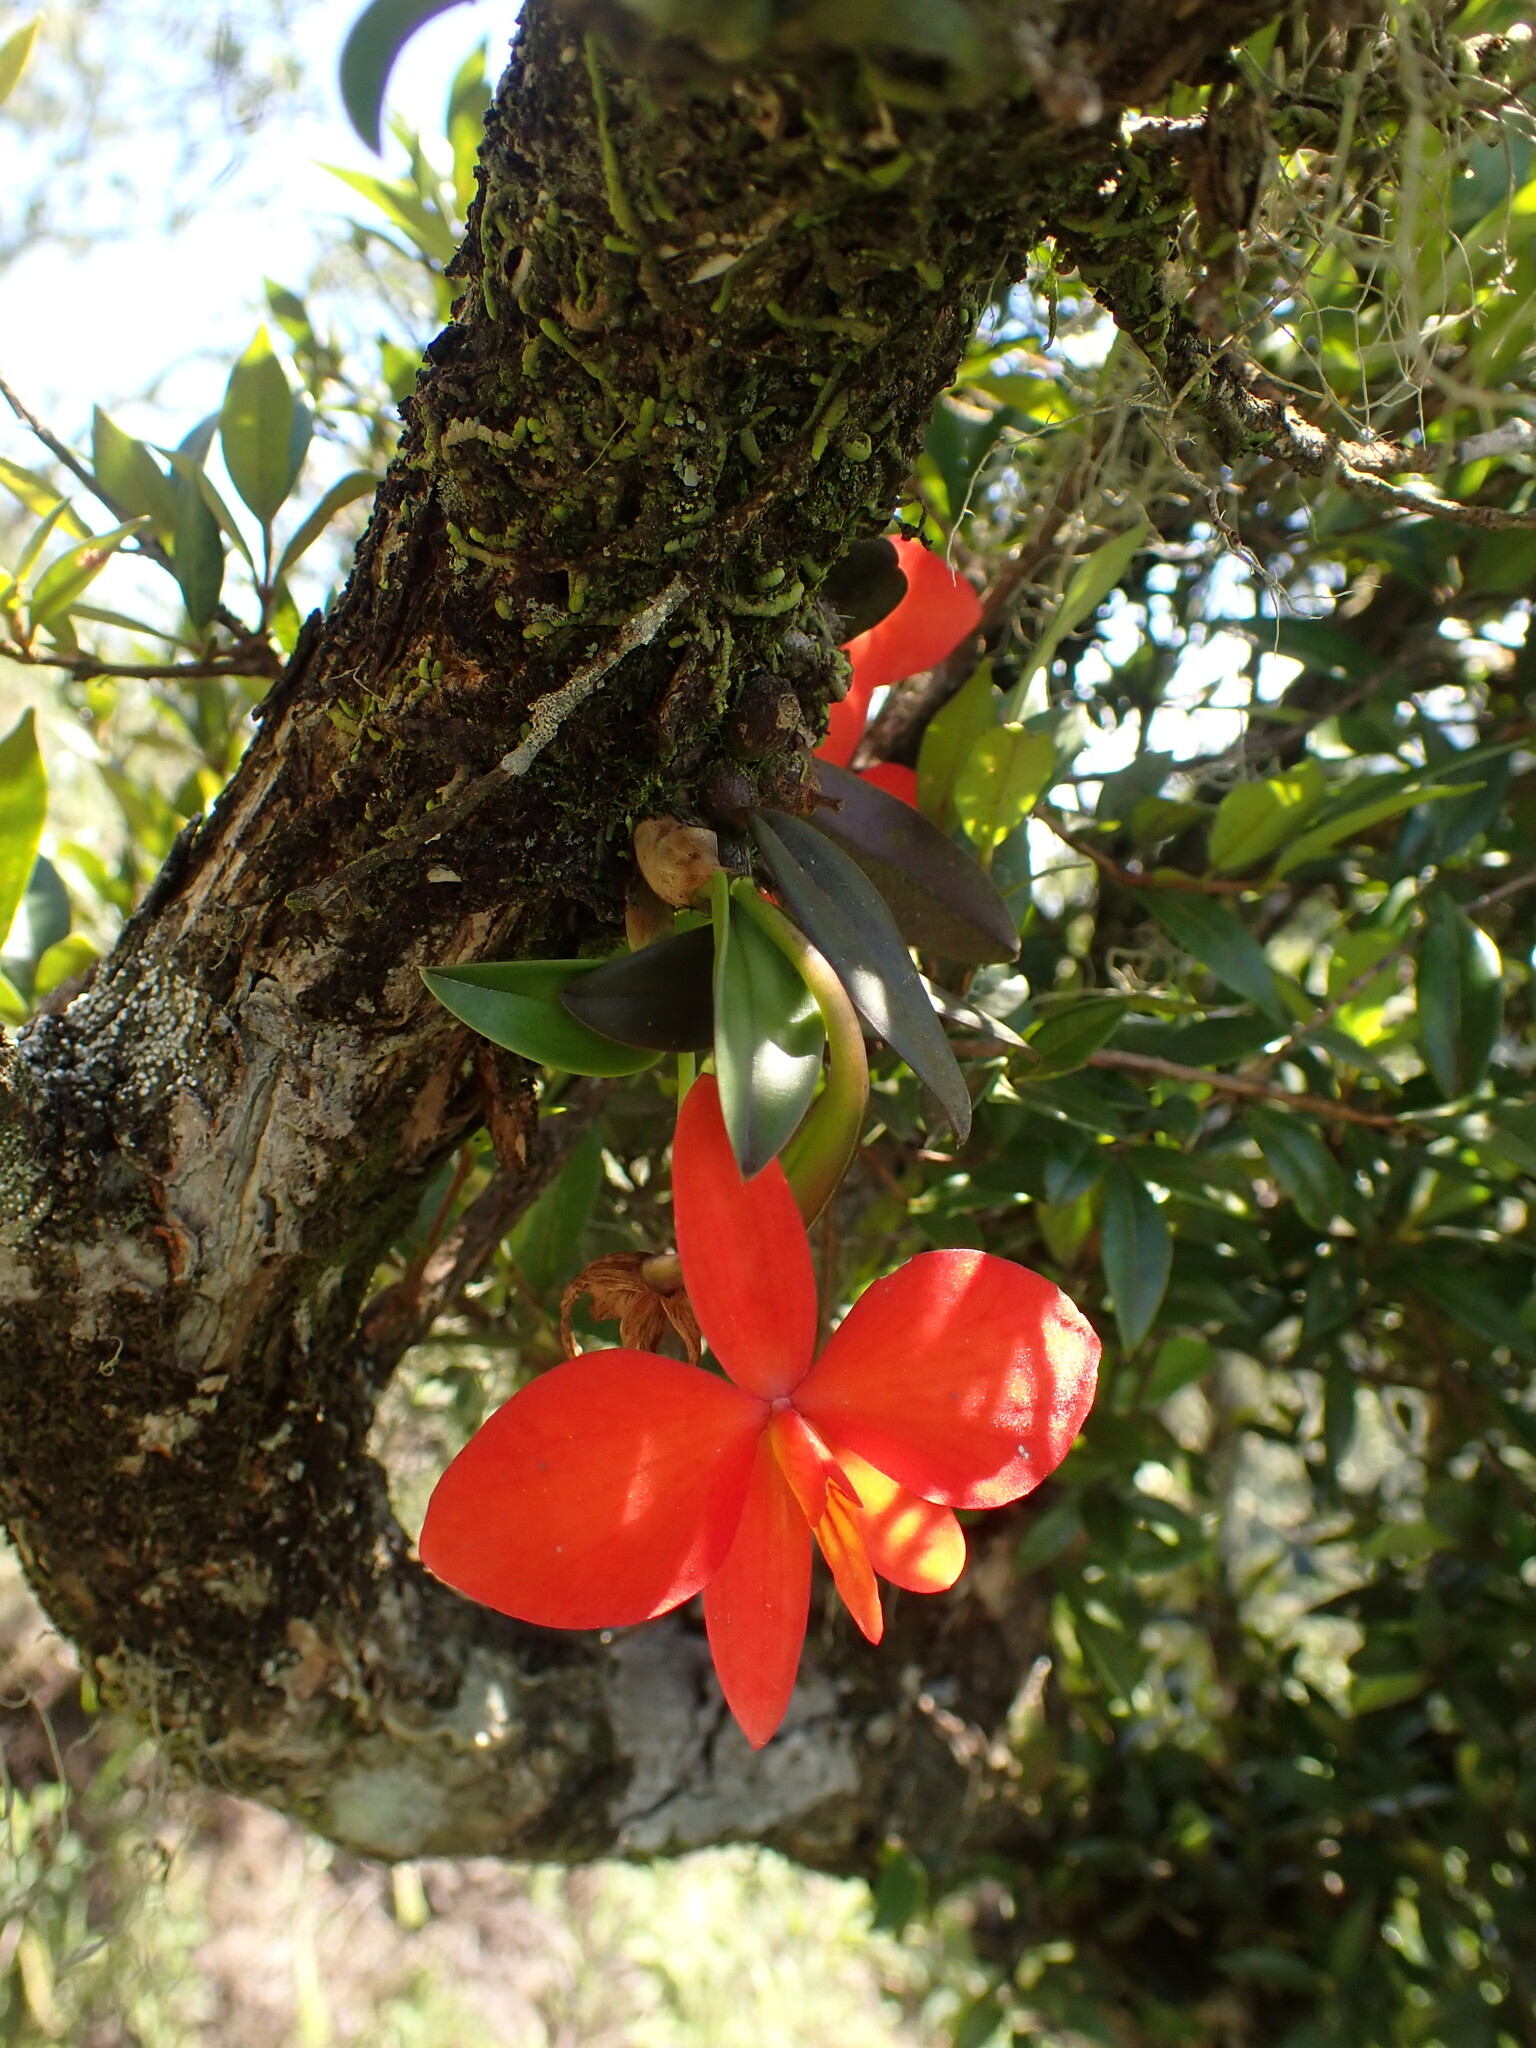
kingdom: Plantae
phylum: Tracheophyta
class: Liliopsida
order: Asparagales
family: Orchidaceae
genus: Cattleya
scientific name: Cattleya coccinea
